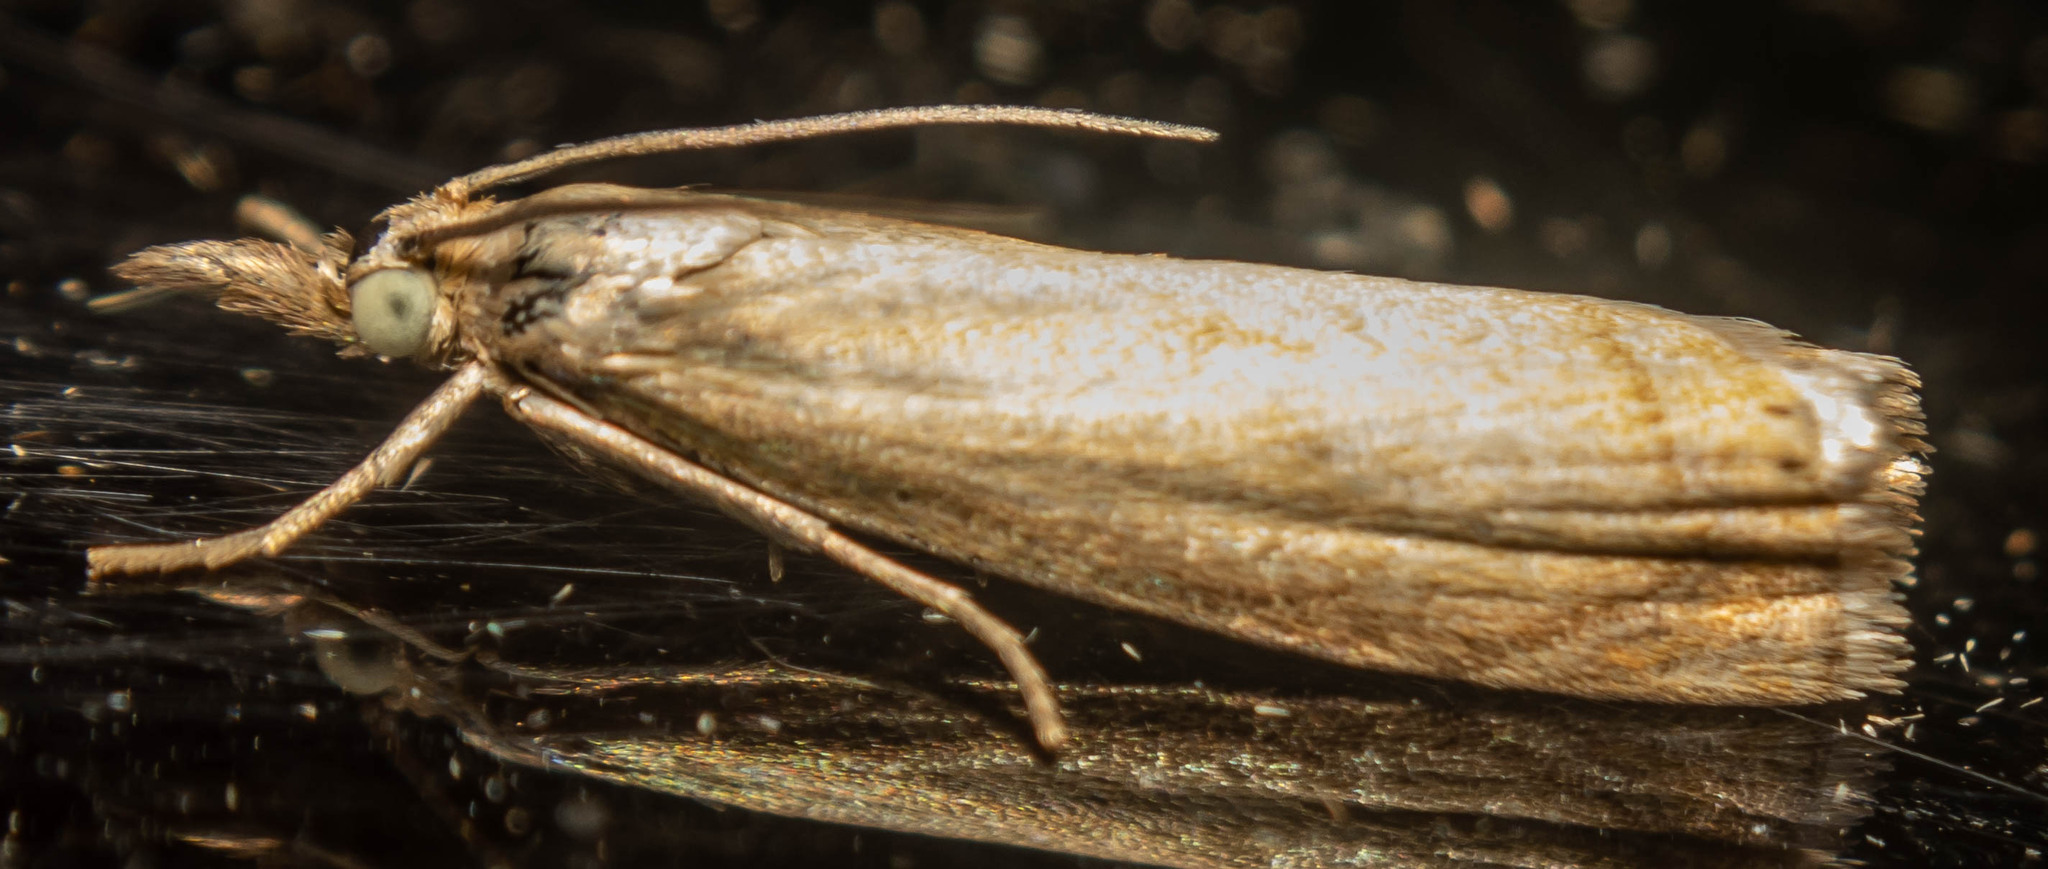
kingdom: Animalia
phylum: Arthropoda
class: Insecta
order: Lepidoptera
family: Crambidae
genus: Chrysoteuchia
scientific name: Chrysoteuchia culmella
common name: Garden grass-veneer
